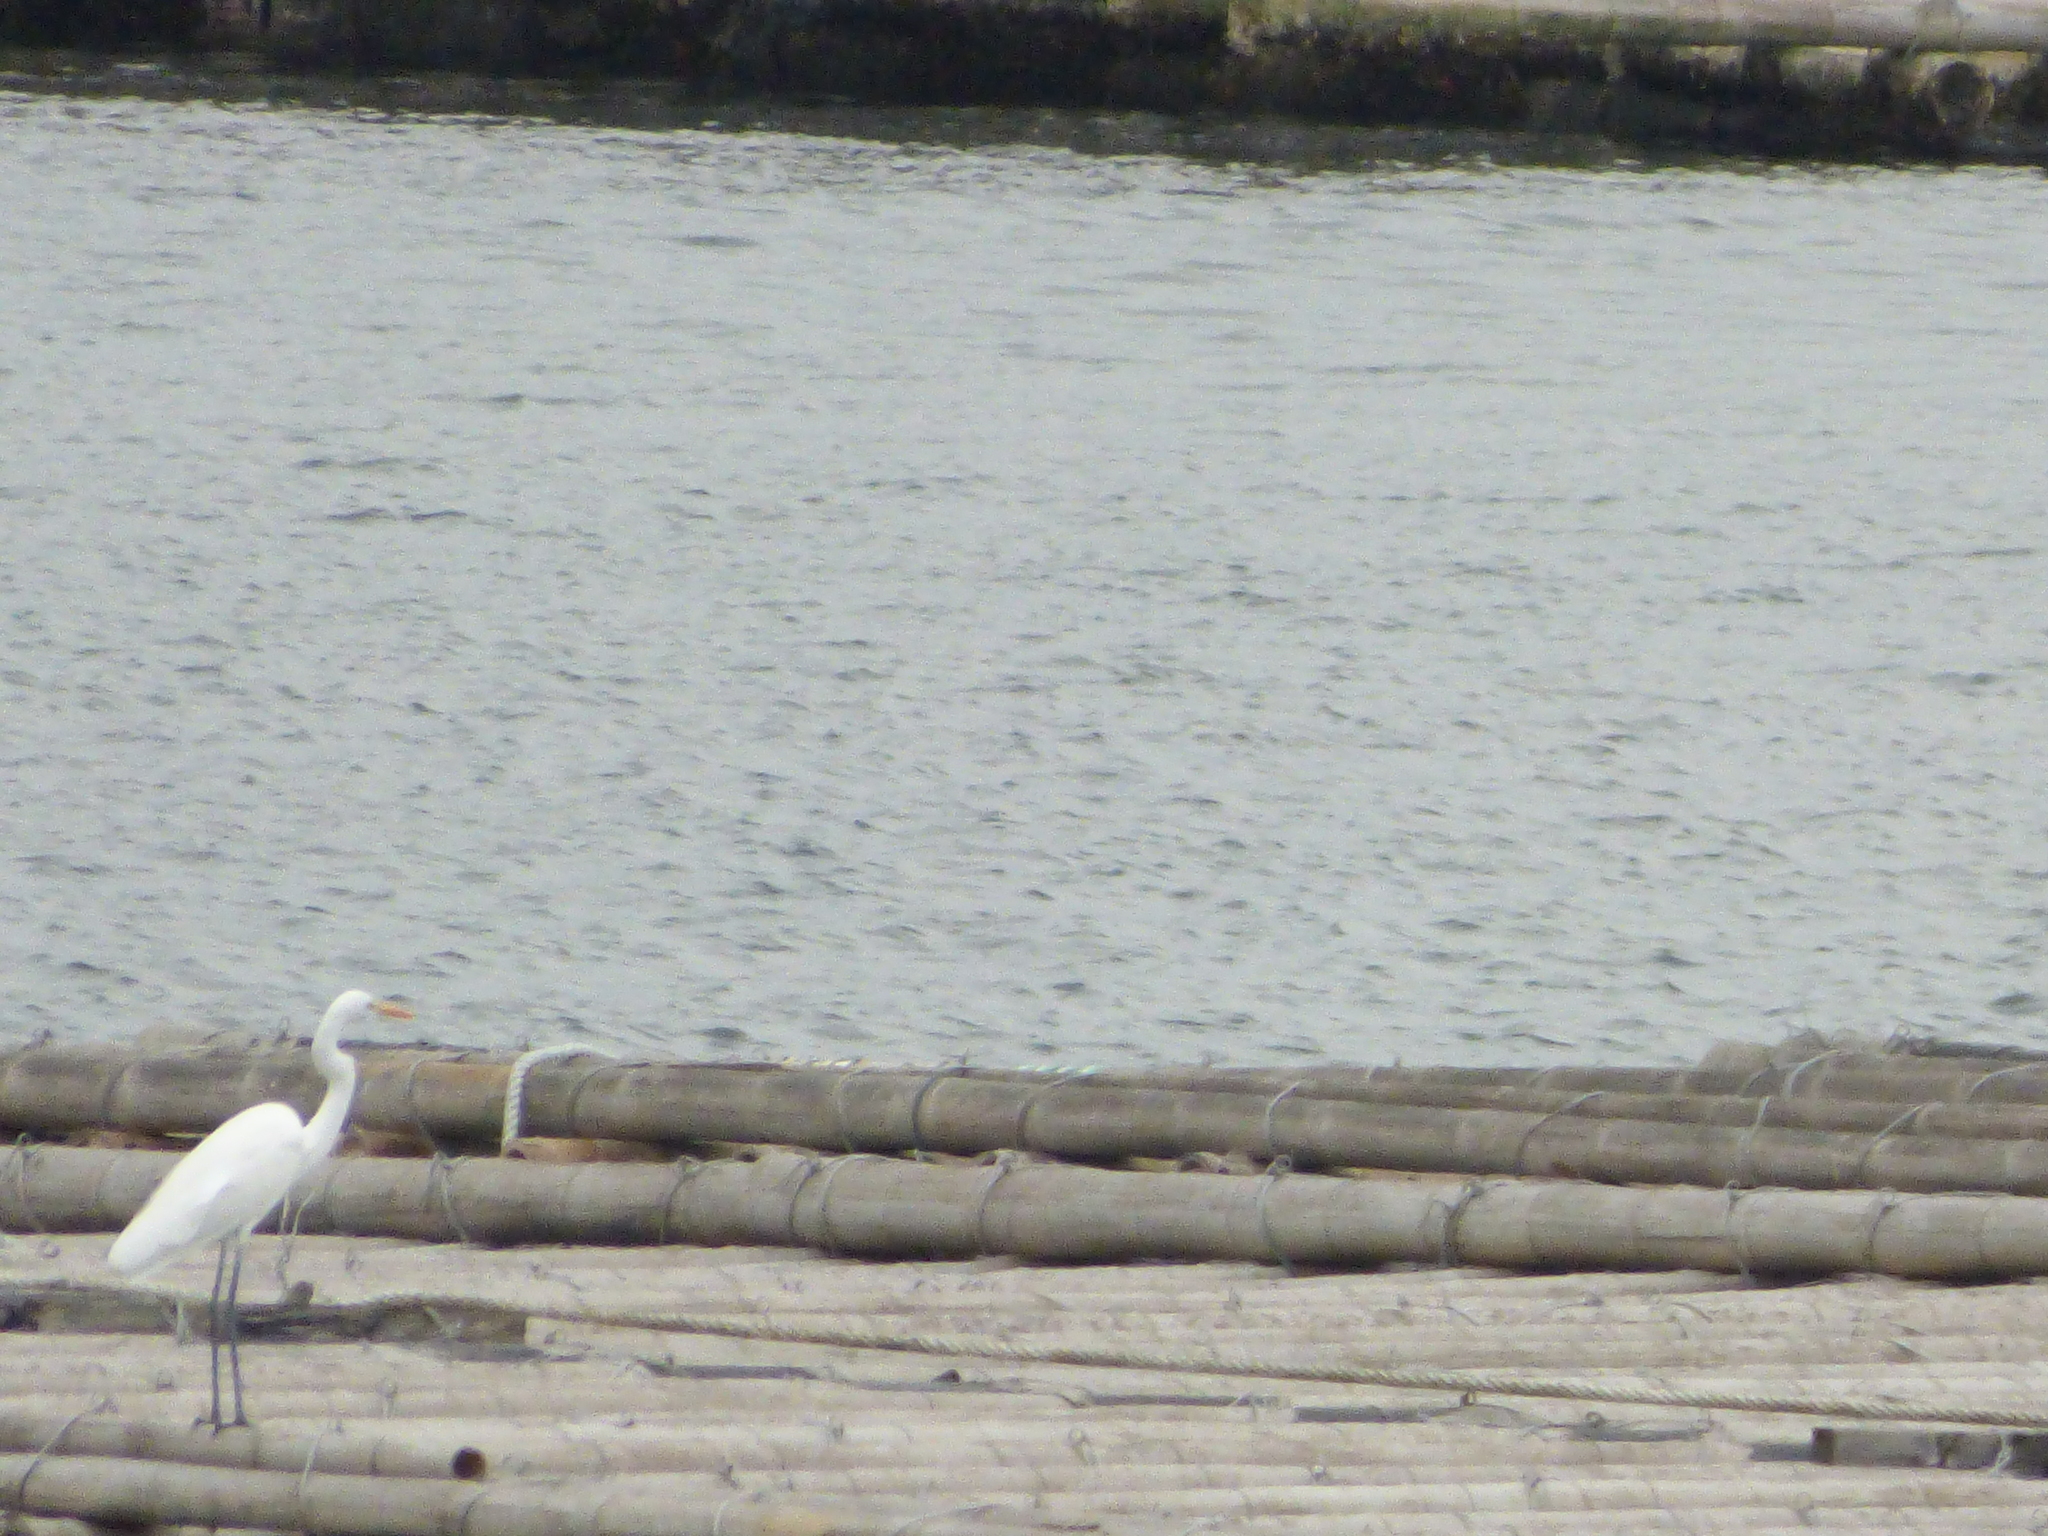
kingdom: Animalia
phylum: Chordata
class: Aves
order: Pelecaniformes
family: Ardeidae
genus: Ardea
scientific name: Ardea alba
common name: Great egret
